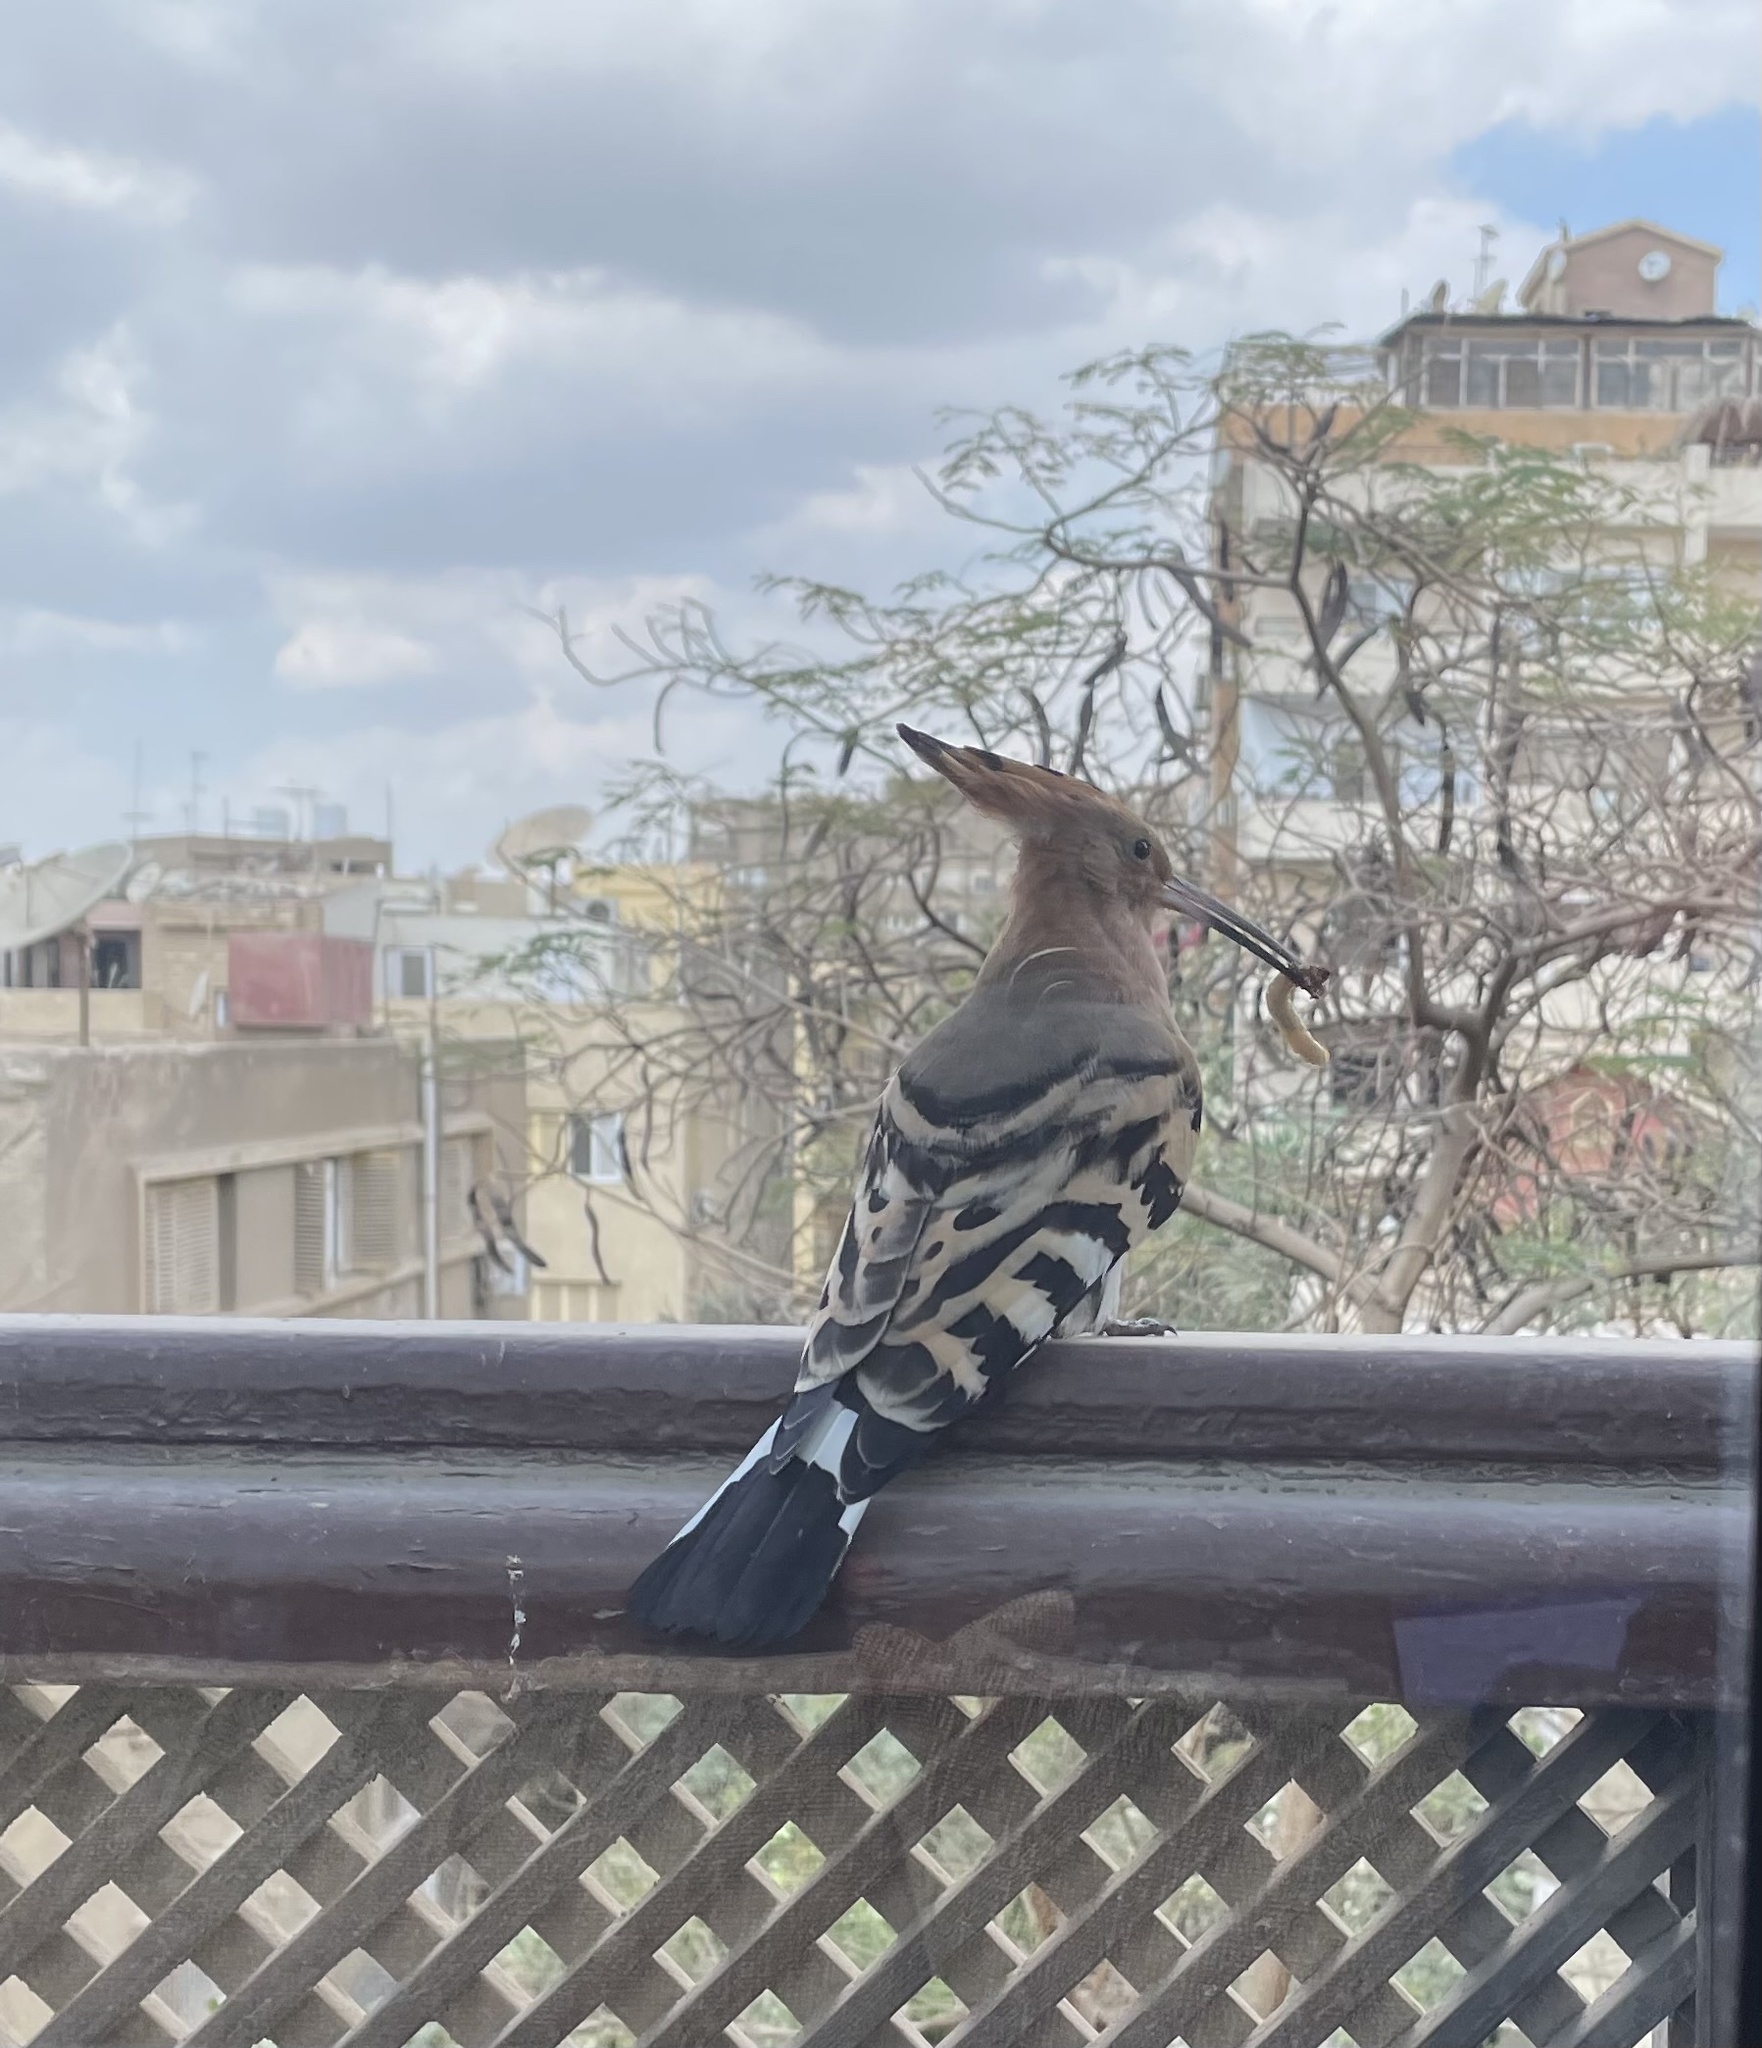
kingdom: Animalia
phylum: Chordata
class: Aves
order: Bucerotiformes
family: Upupidae
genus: Upupa
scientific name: Upupa epops
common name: Eurasian hoopoe
